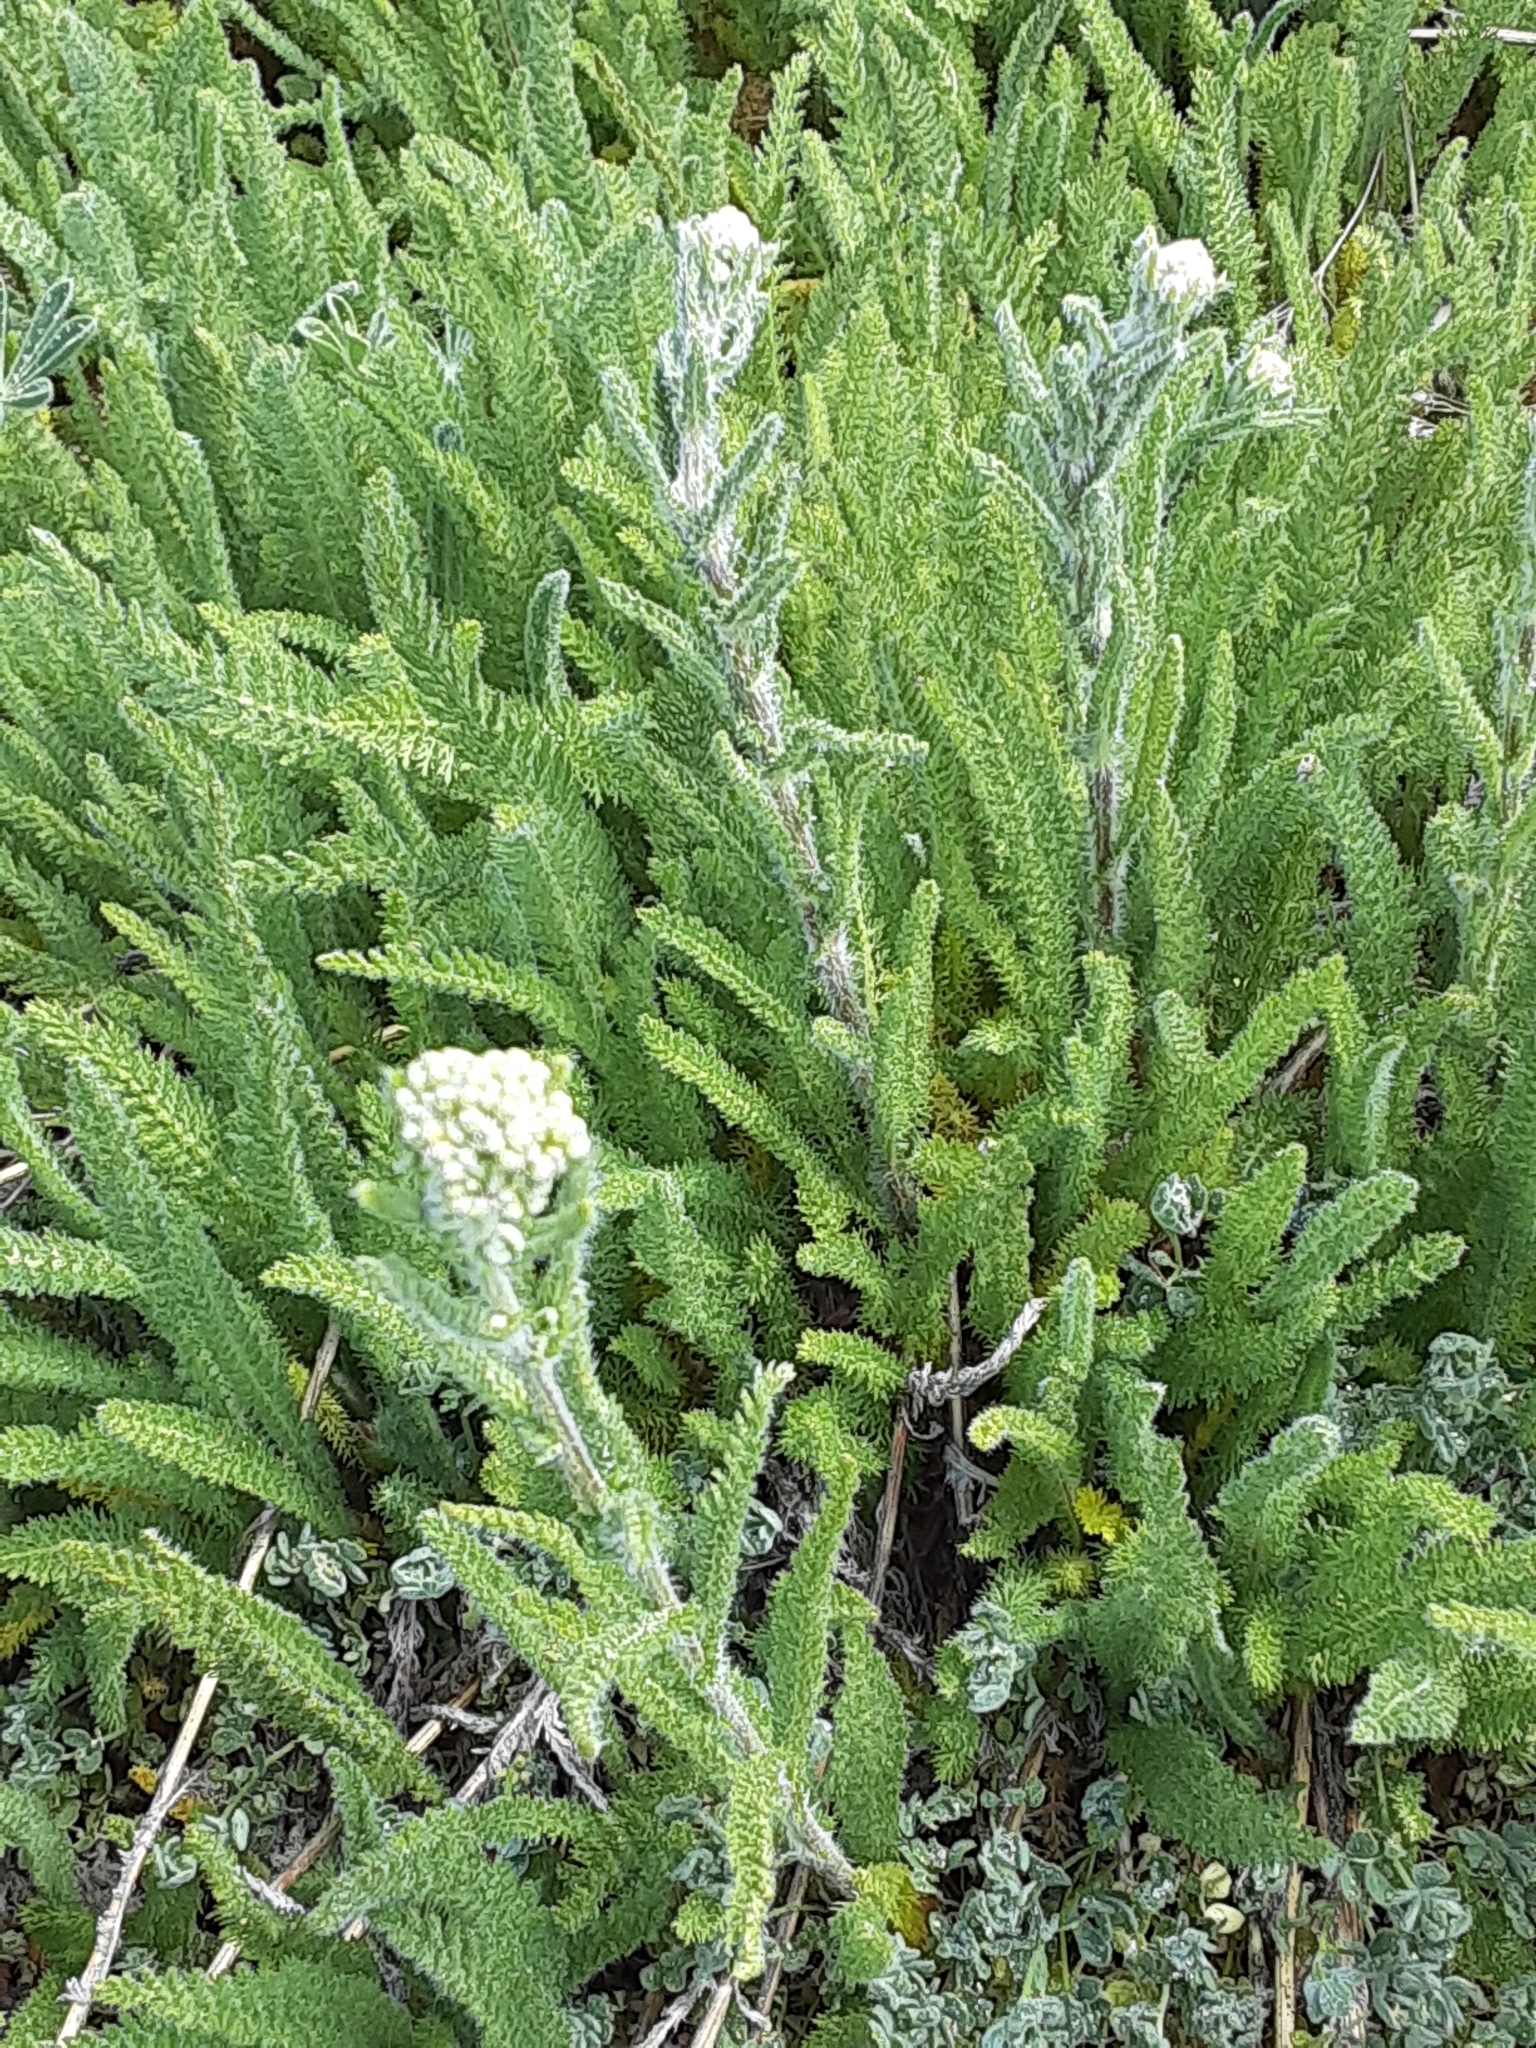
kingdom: Plantae
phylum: Tracheophyta
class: Magnoliopsida
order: Asterales
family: Asteraceae
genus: Achillea
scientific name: Achillea millefolium
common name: Yarrow
